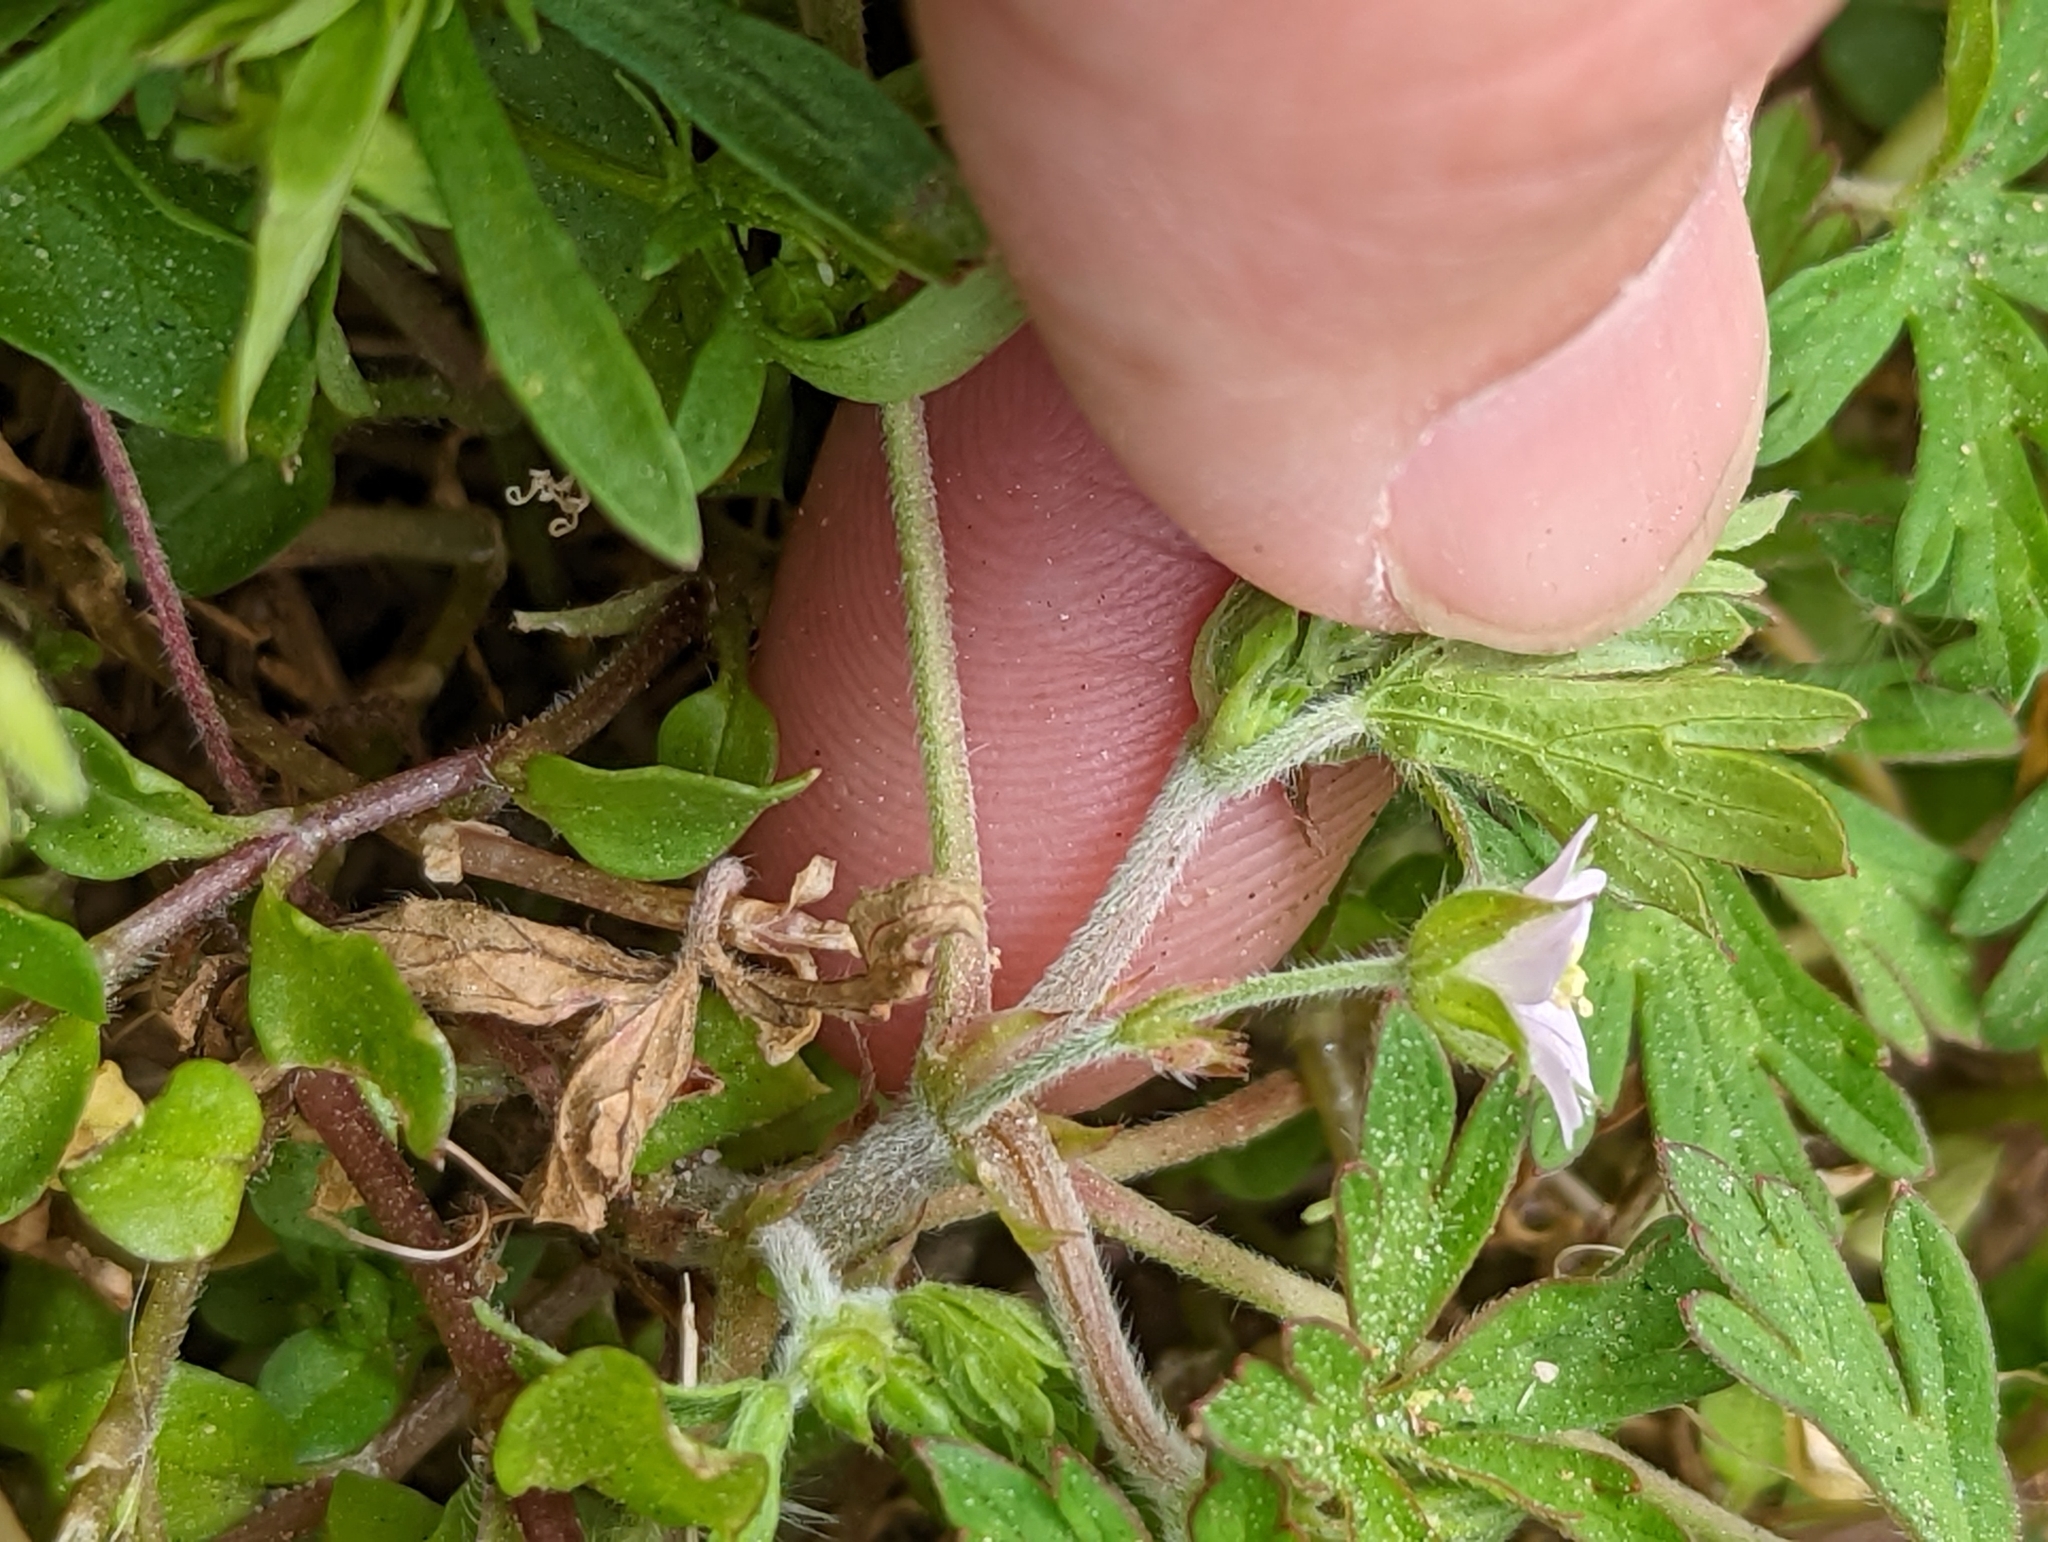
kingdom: Plantae
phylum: Tracheophyta
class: Magnoliopsida
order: Geraniales
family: Geraniaceae
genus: Geranium
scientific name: Geranium carolinianum
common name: Carolina crane's-bill
